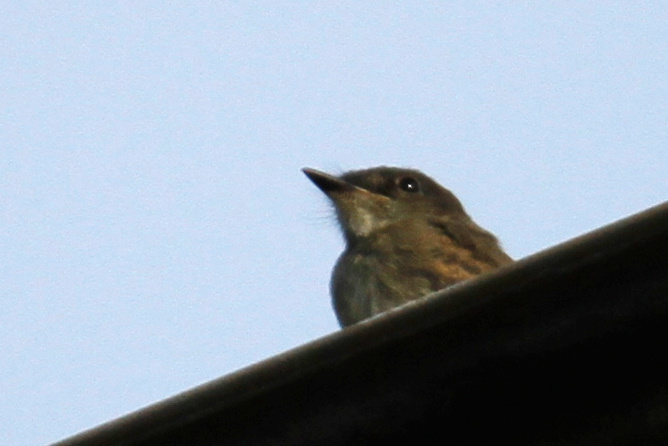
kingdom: Animalia
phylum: Chordata
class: Aves
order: Passeriformes
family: Tyrannidae
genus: Sayornis
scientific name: Sayornis phoebe
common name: Eastern phoebe
